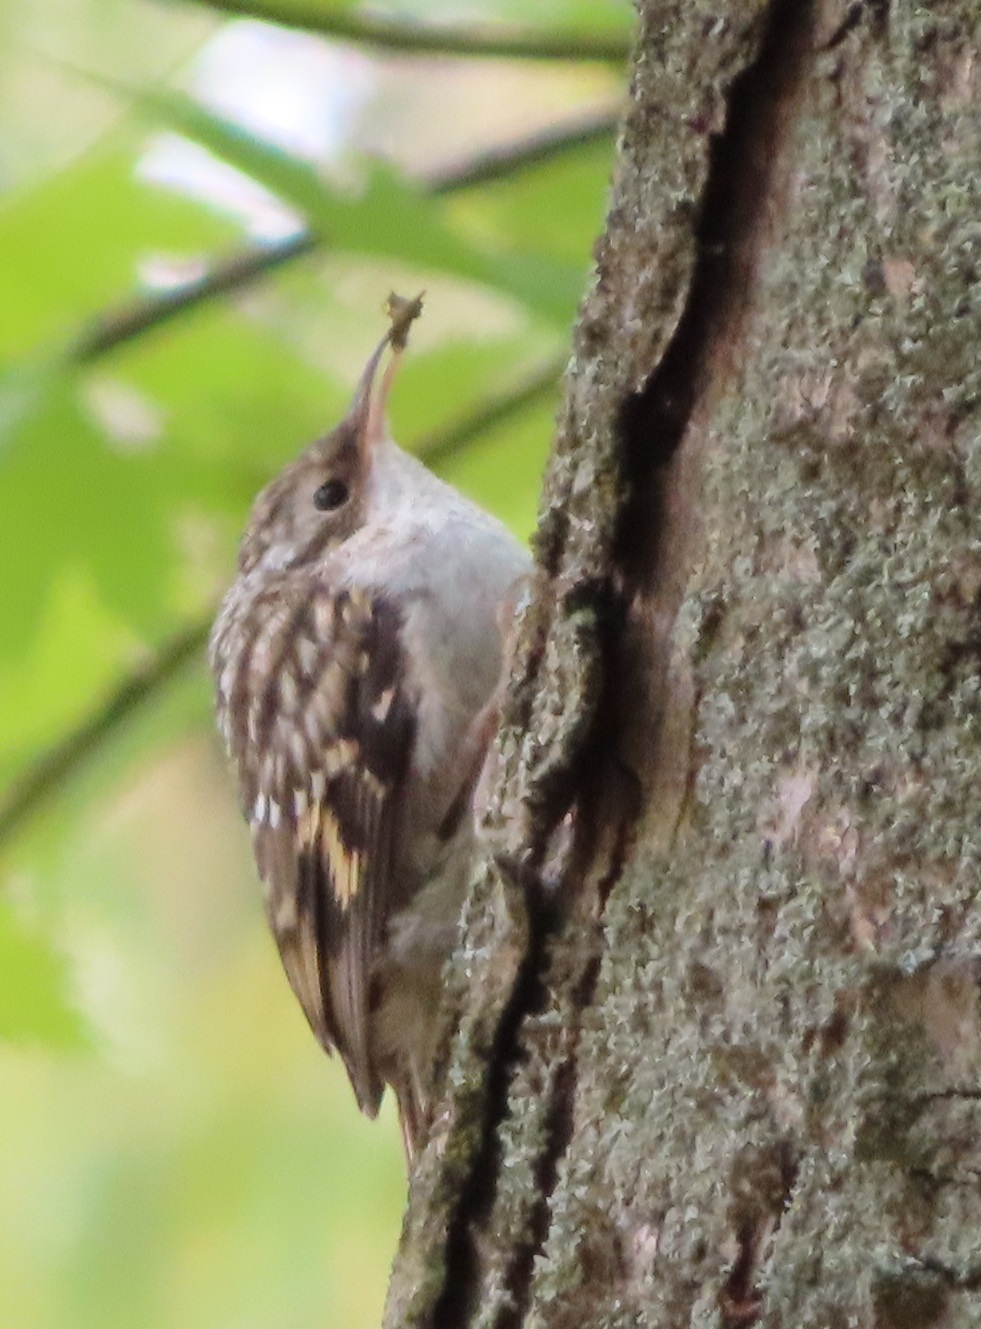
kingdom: Animalia
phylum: Chordata
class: Aves
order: Passeriformes
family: Certhiidae
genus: Certhia
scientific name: Certhia familiaris
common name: Eurasian treecreeper
